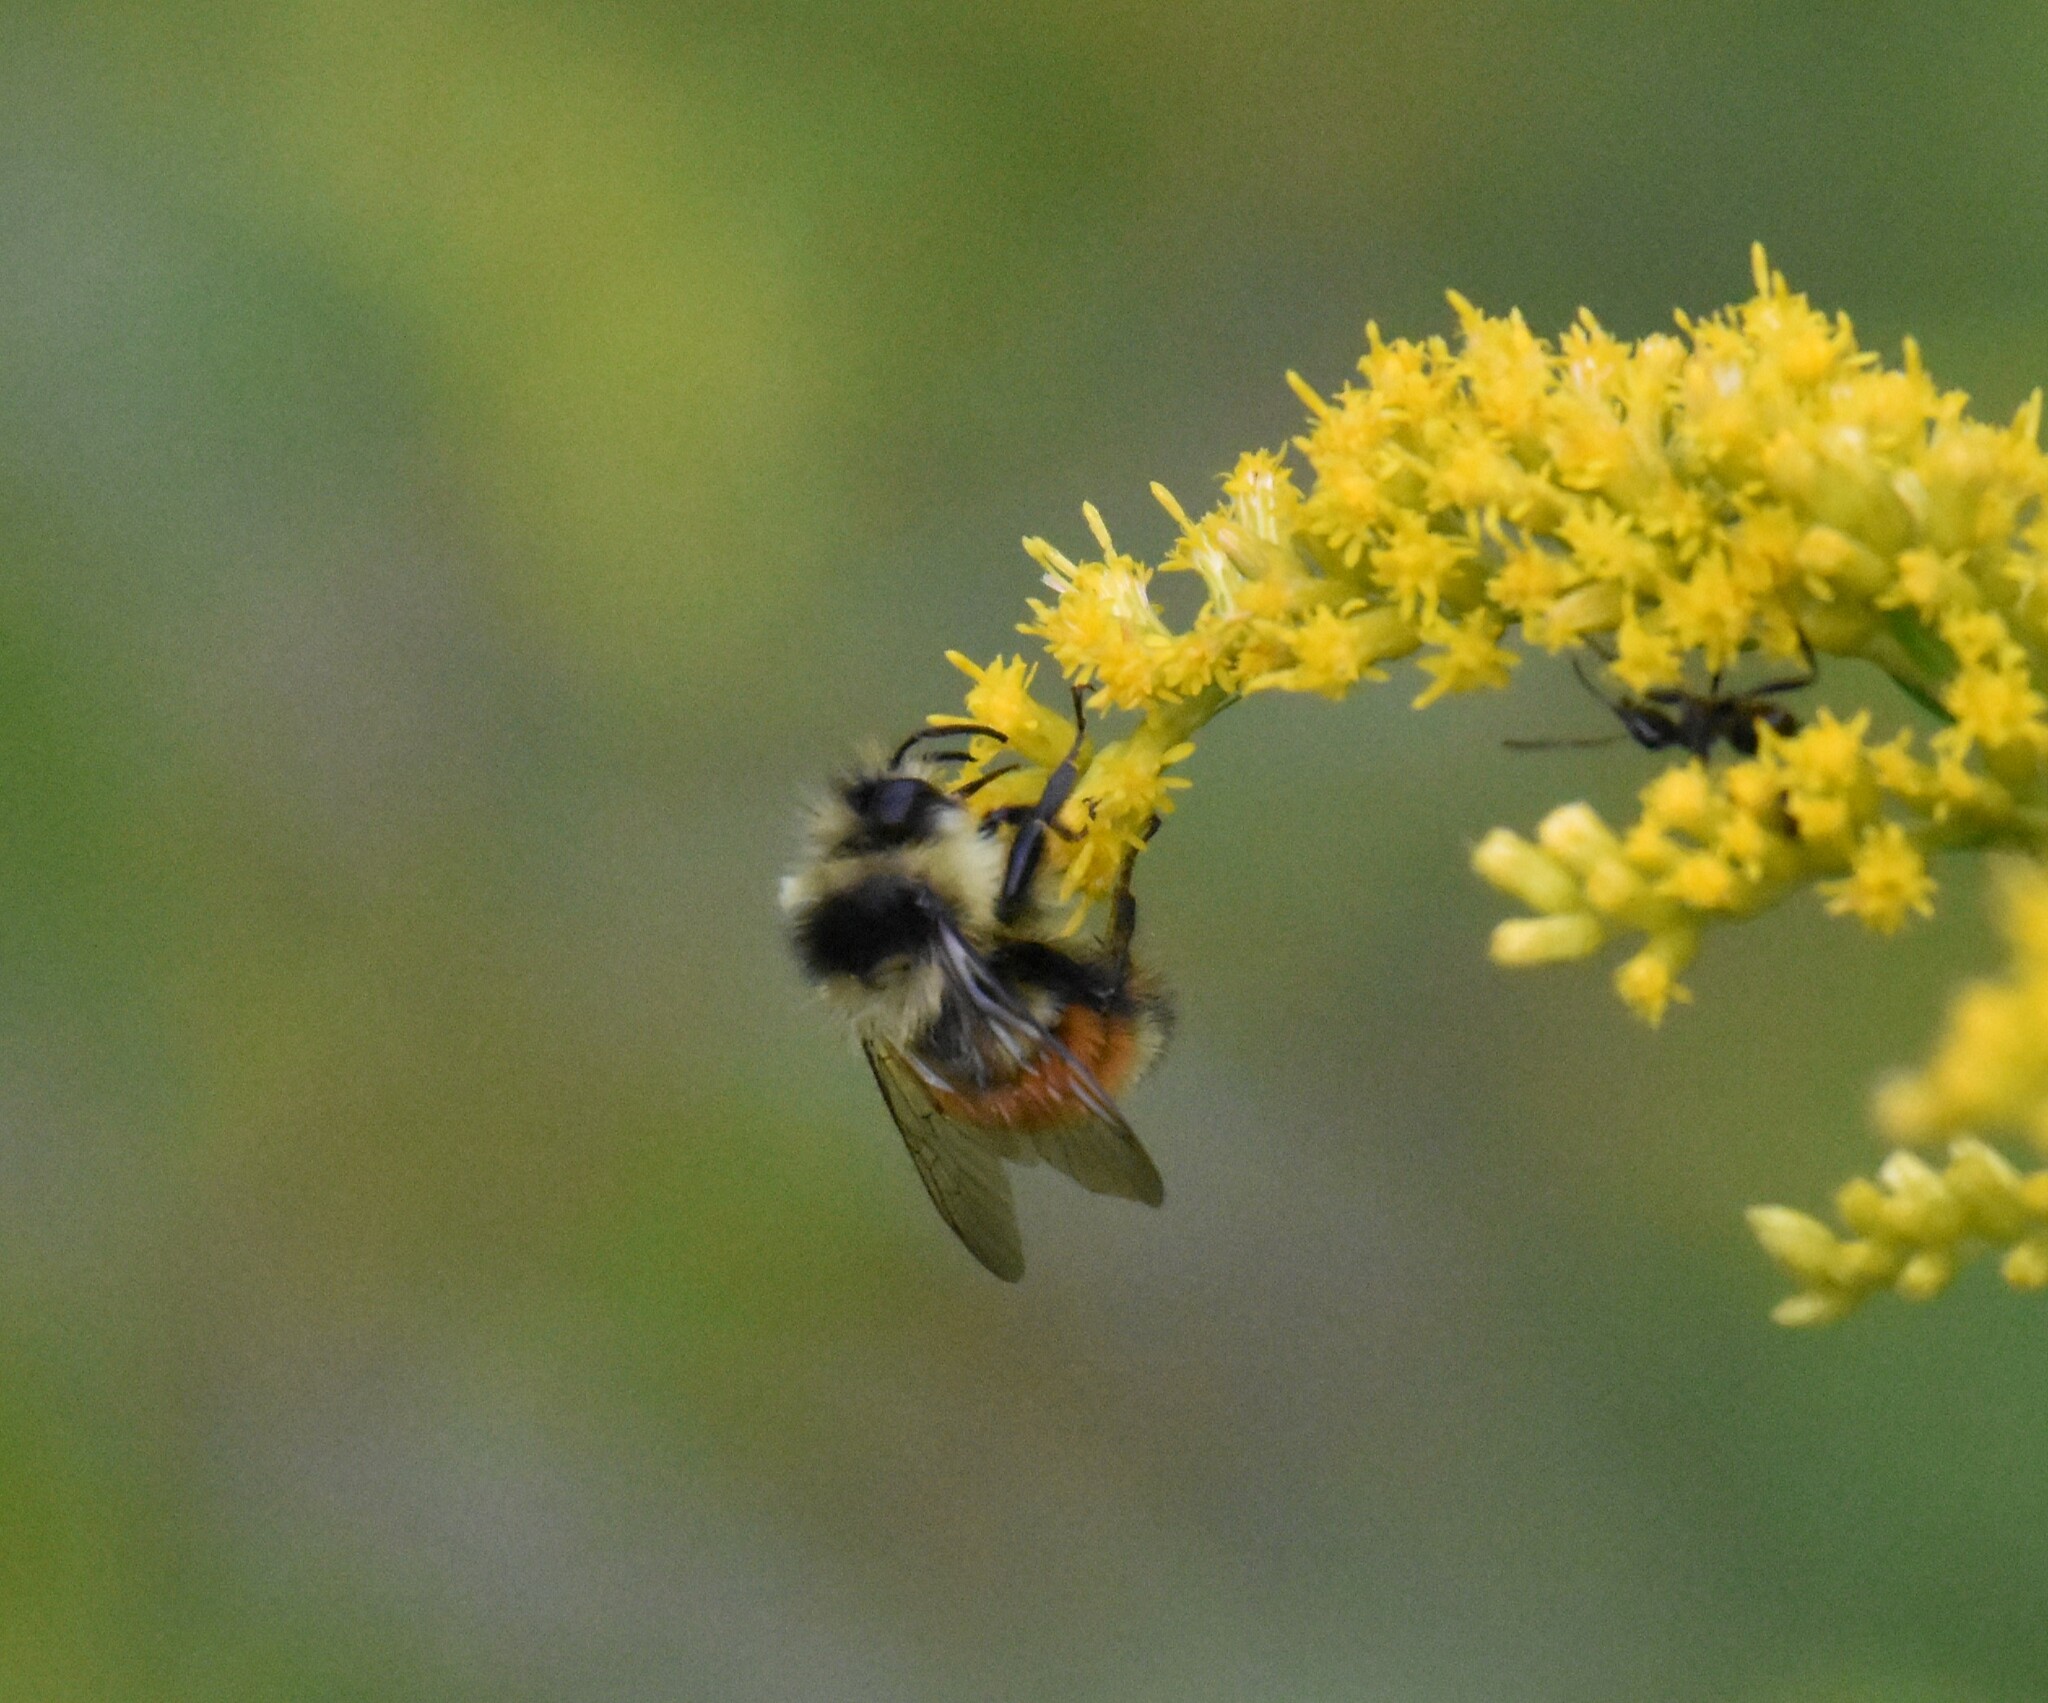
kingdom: Animalia
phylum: Arthropoda
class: Insecta
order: Hymenoptera
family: Apidae
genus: Bombus
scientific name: Bombus ternarius
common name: Tri-colored bumble bee
